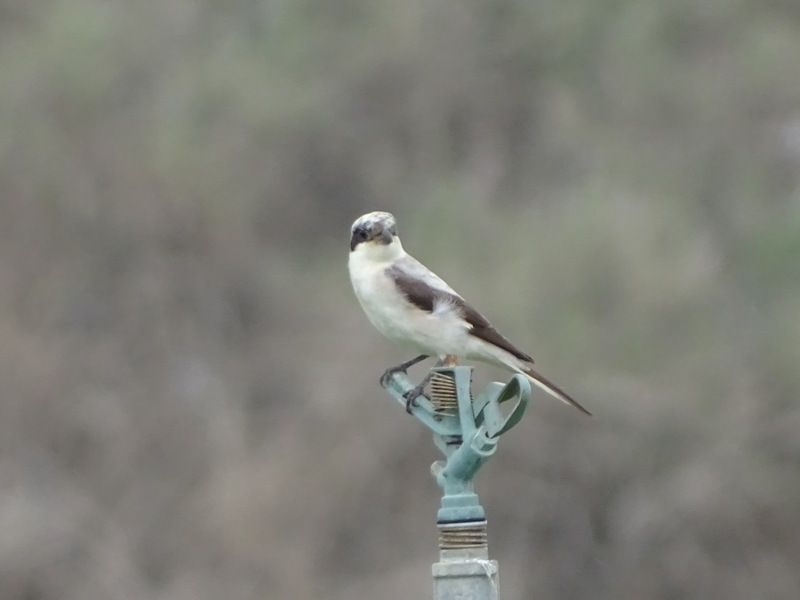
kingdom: Animalia
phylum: Chordata
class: Aves
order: Passeriformes
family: Laniidae
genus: Lanius
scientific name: Lanius minor
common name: Lesser grey shrike
